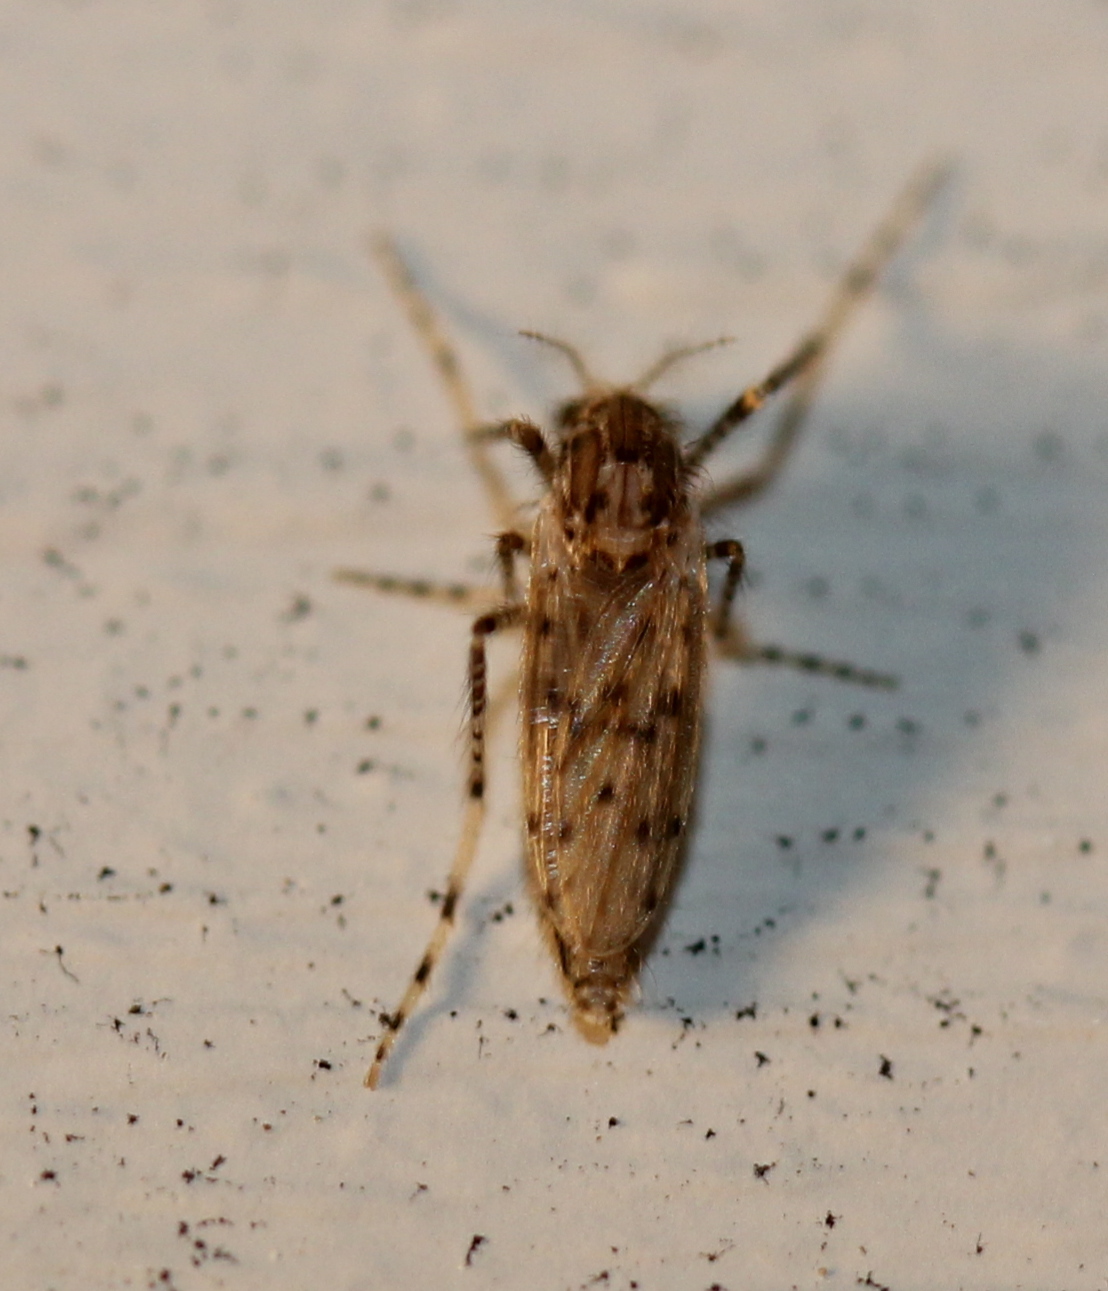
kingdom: Animalia
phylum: Arthropoda
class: Insecta
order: Diptera
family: Chaoboridae
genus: Chaoborus
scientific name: Chaoborus punctipennis
